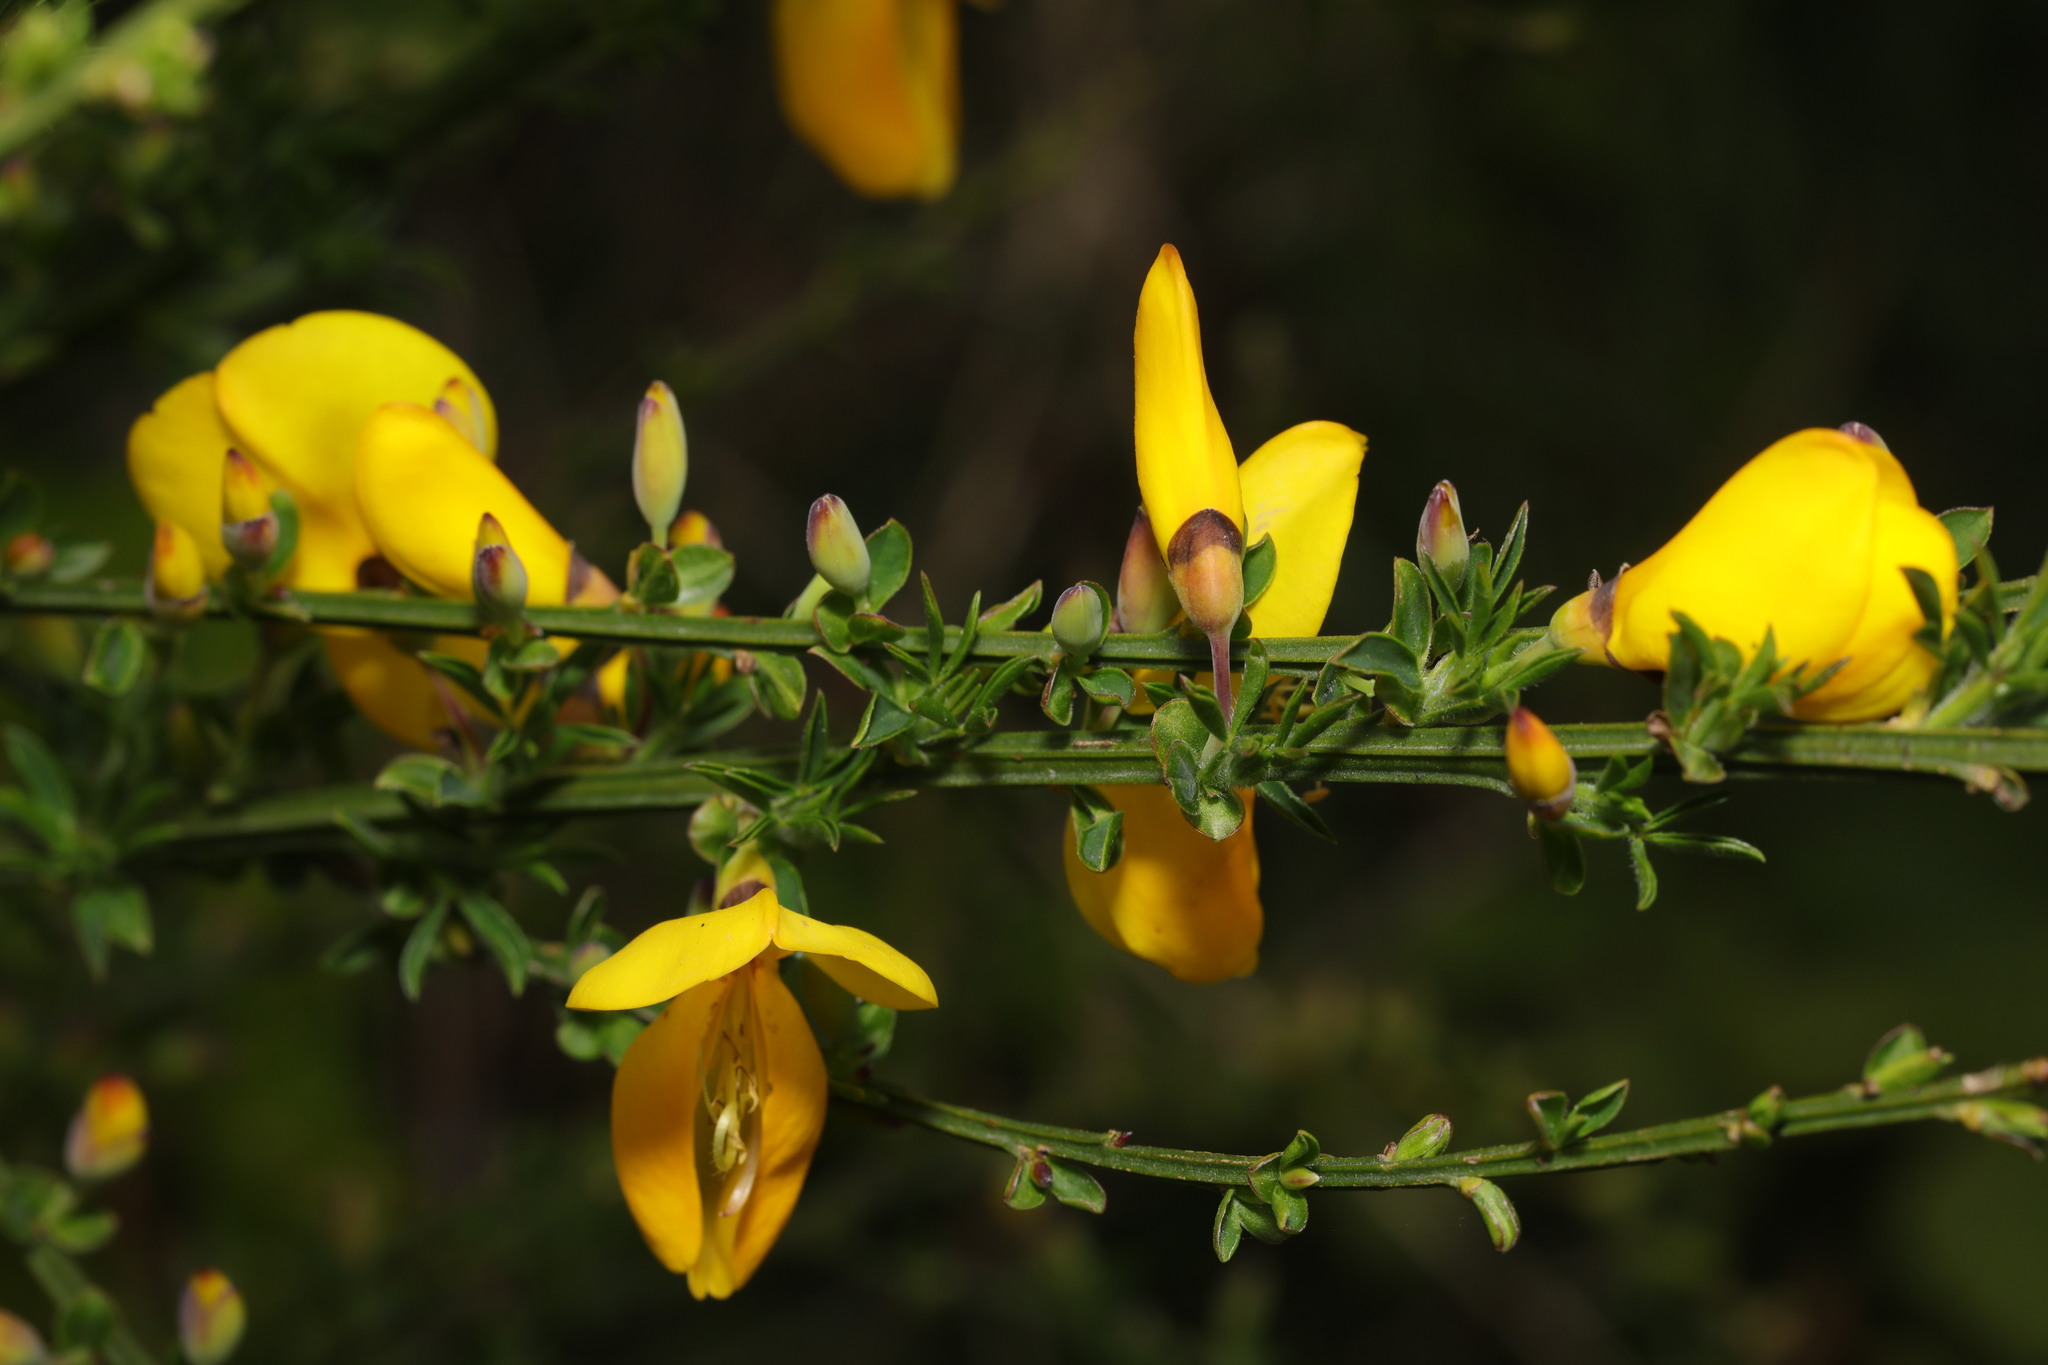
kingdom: Plantae
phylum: Tracheophyta
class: Magnoliopsida
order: Fabales
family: Fabaceae
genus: Cytisus
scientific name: Cytisus scoparius
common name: Scotch broom
